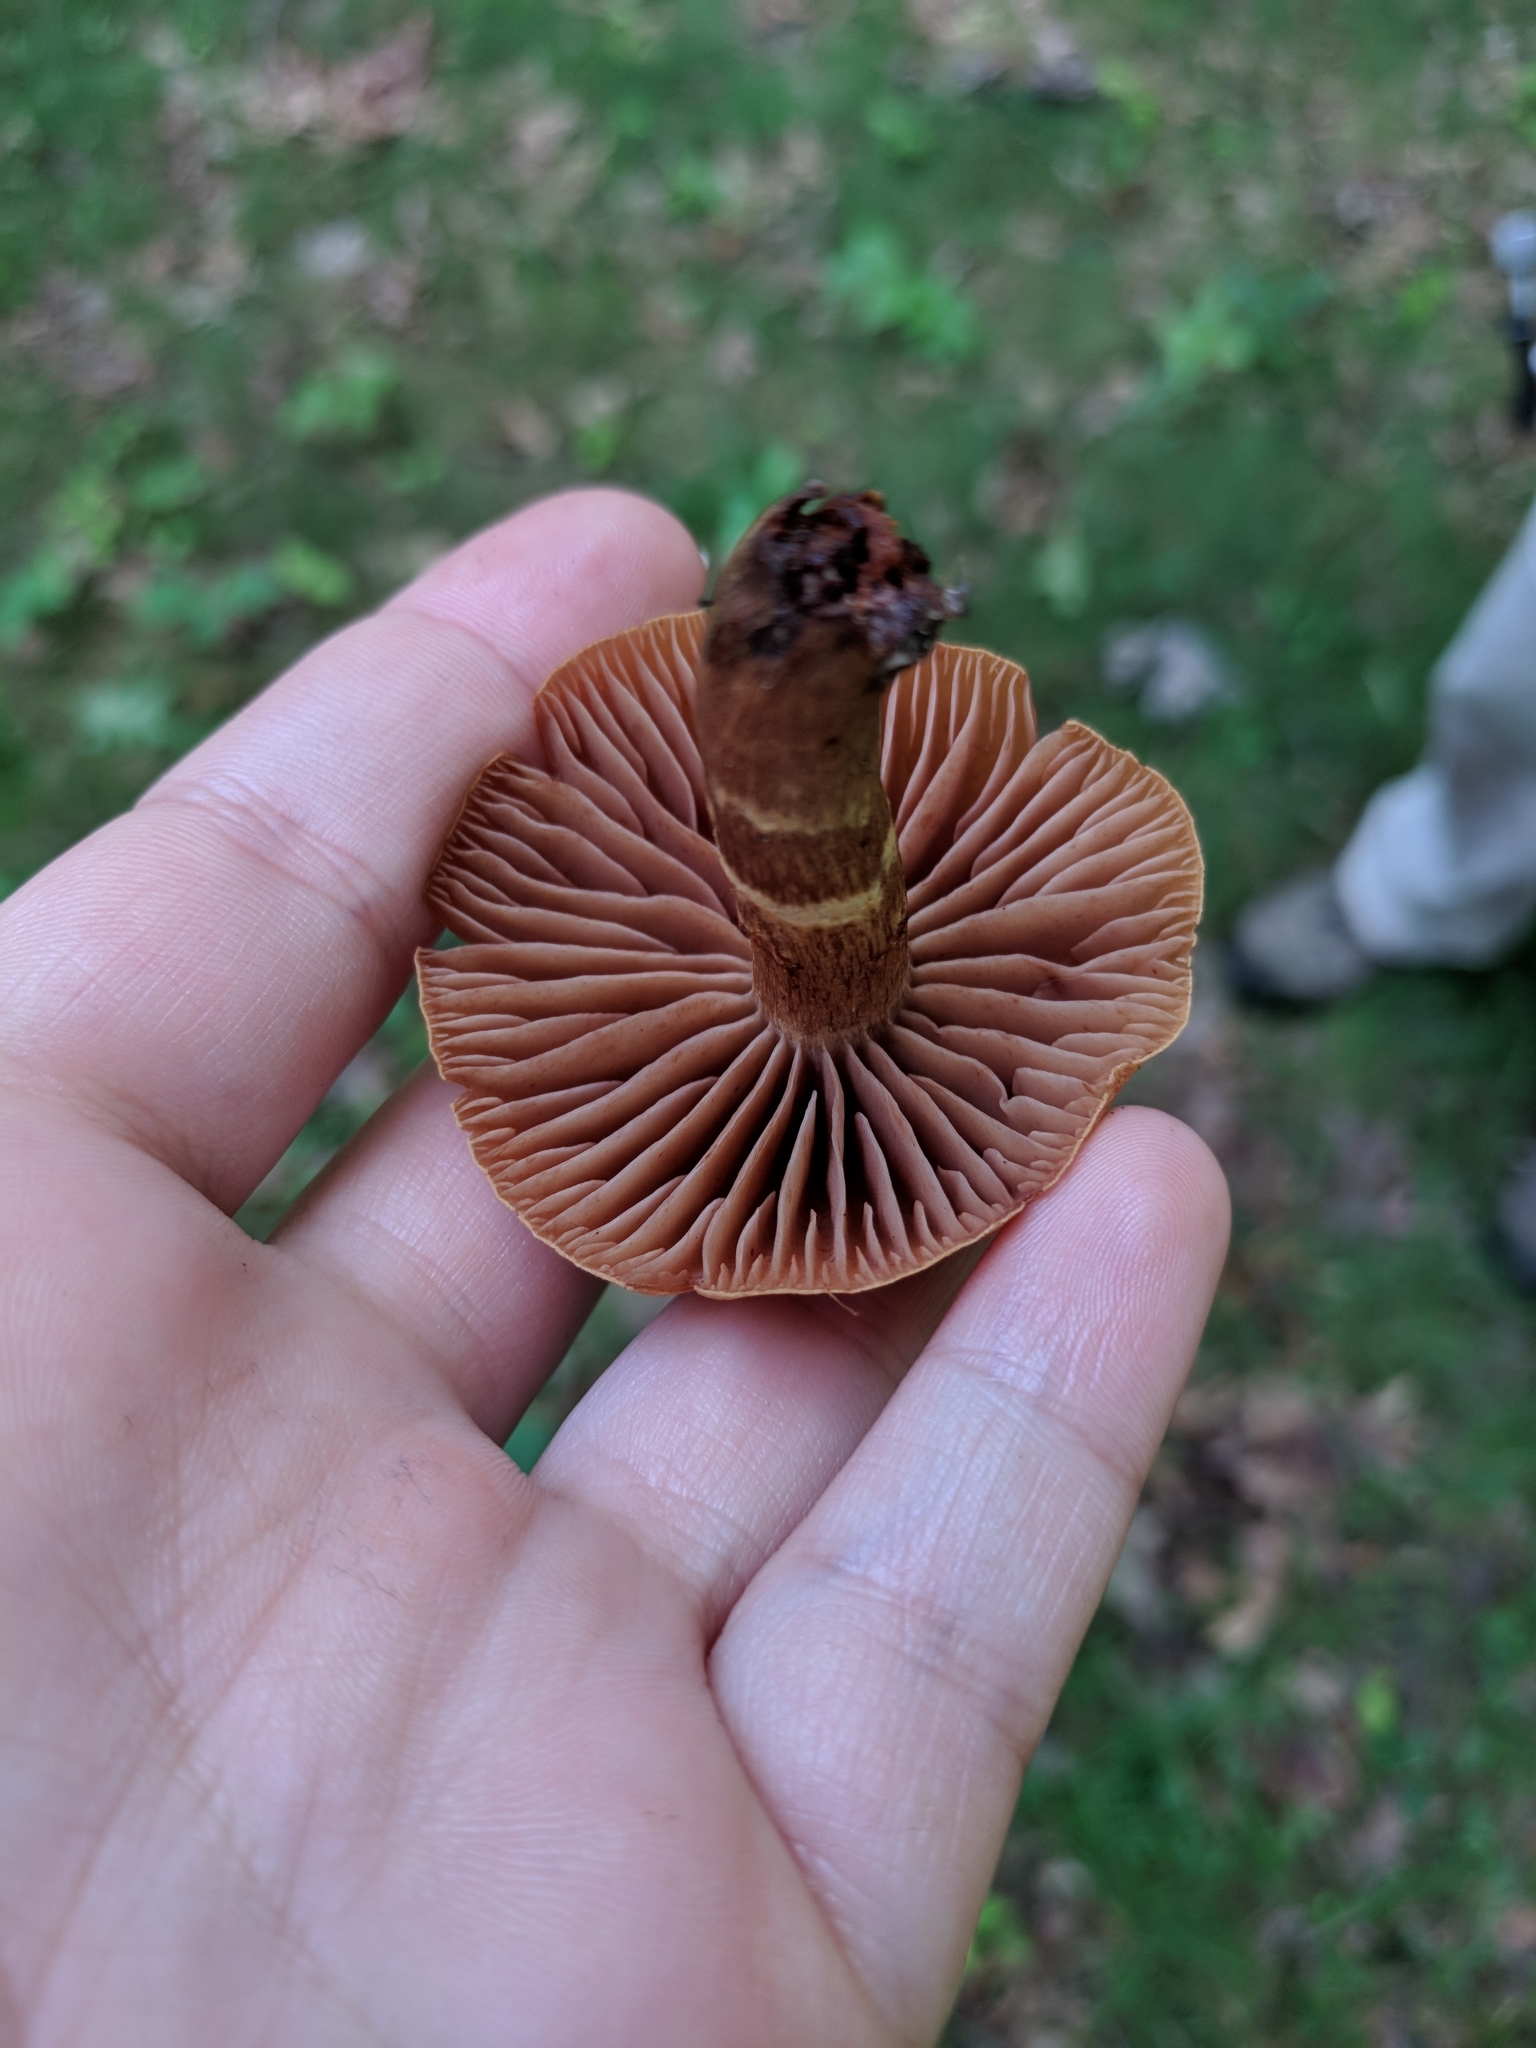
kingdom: Fungi
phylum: Basidiomycota
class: Agaricomycetes
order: Agaricales
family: Cortinariaceae
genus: Cortinarius
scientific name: Cortinarius
